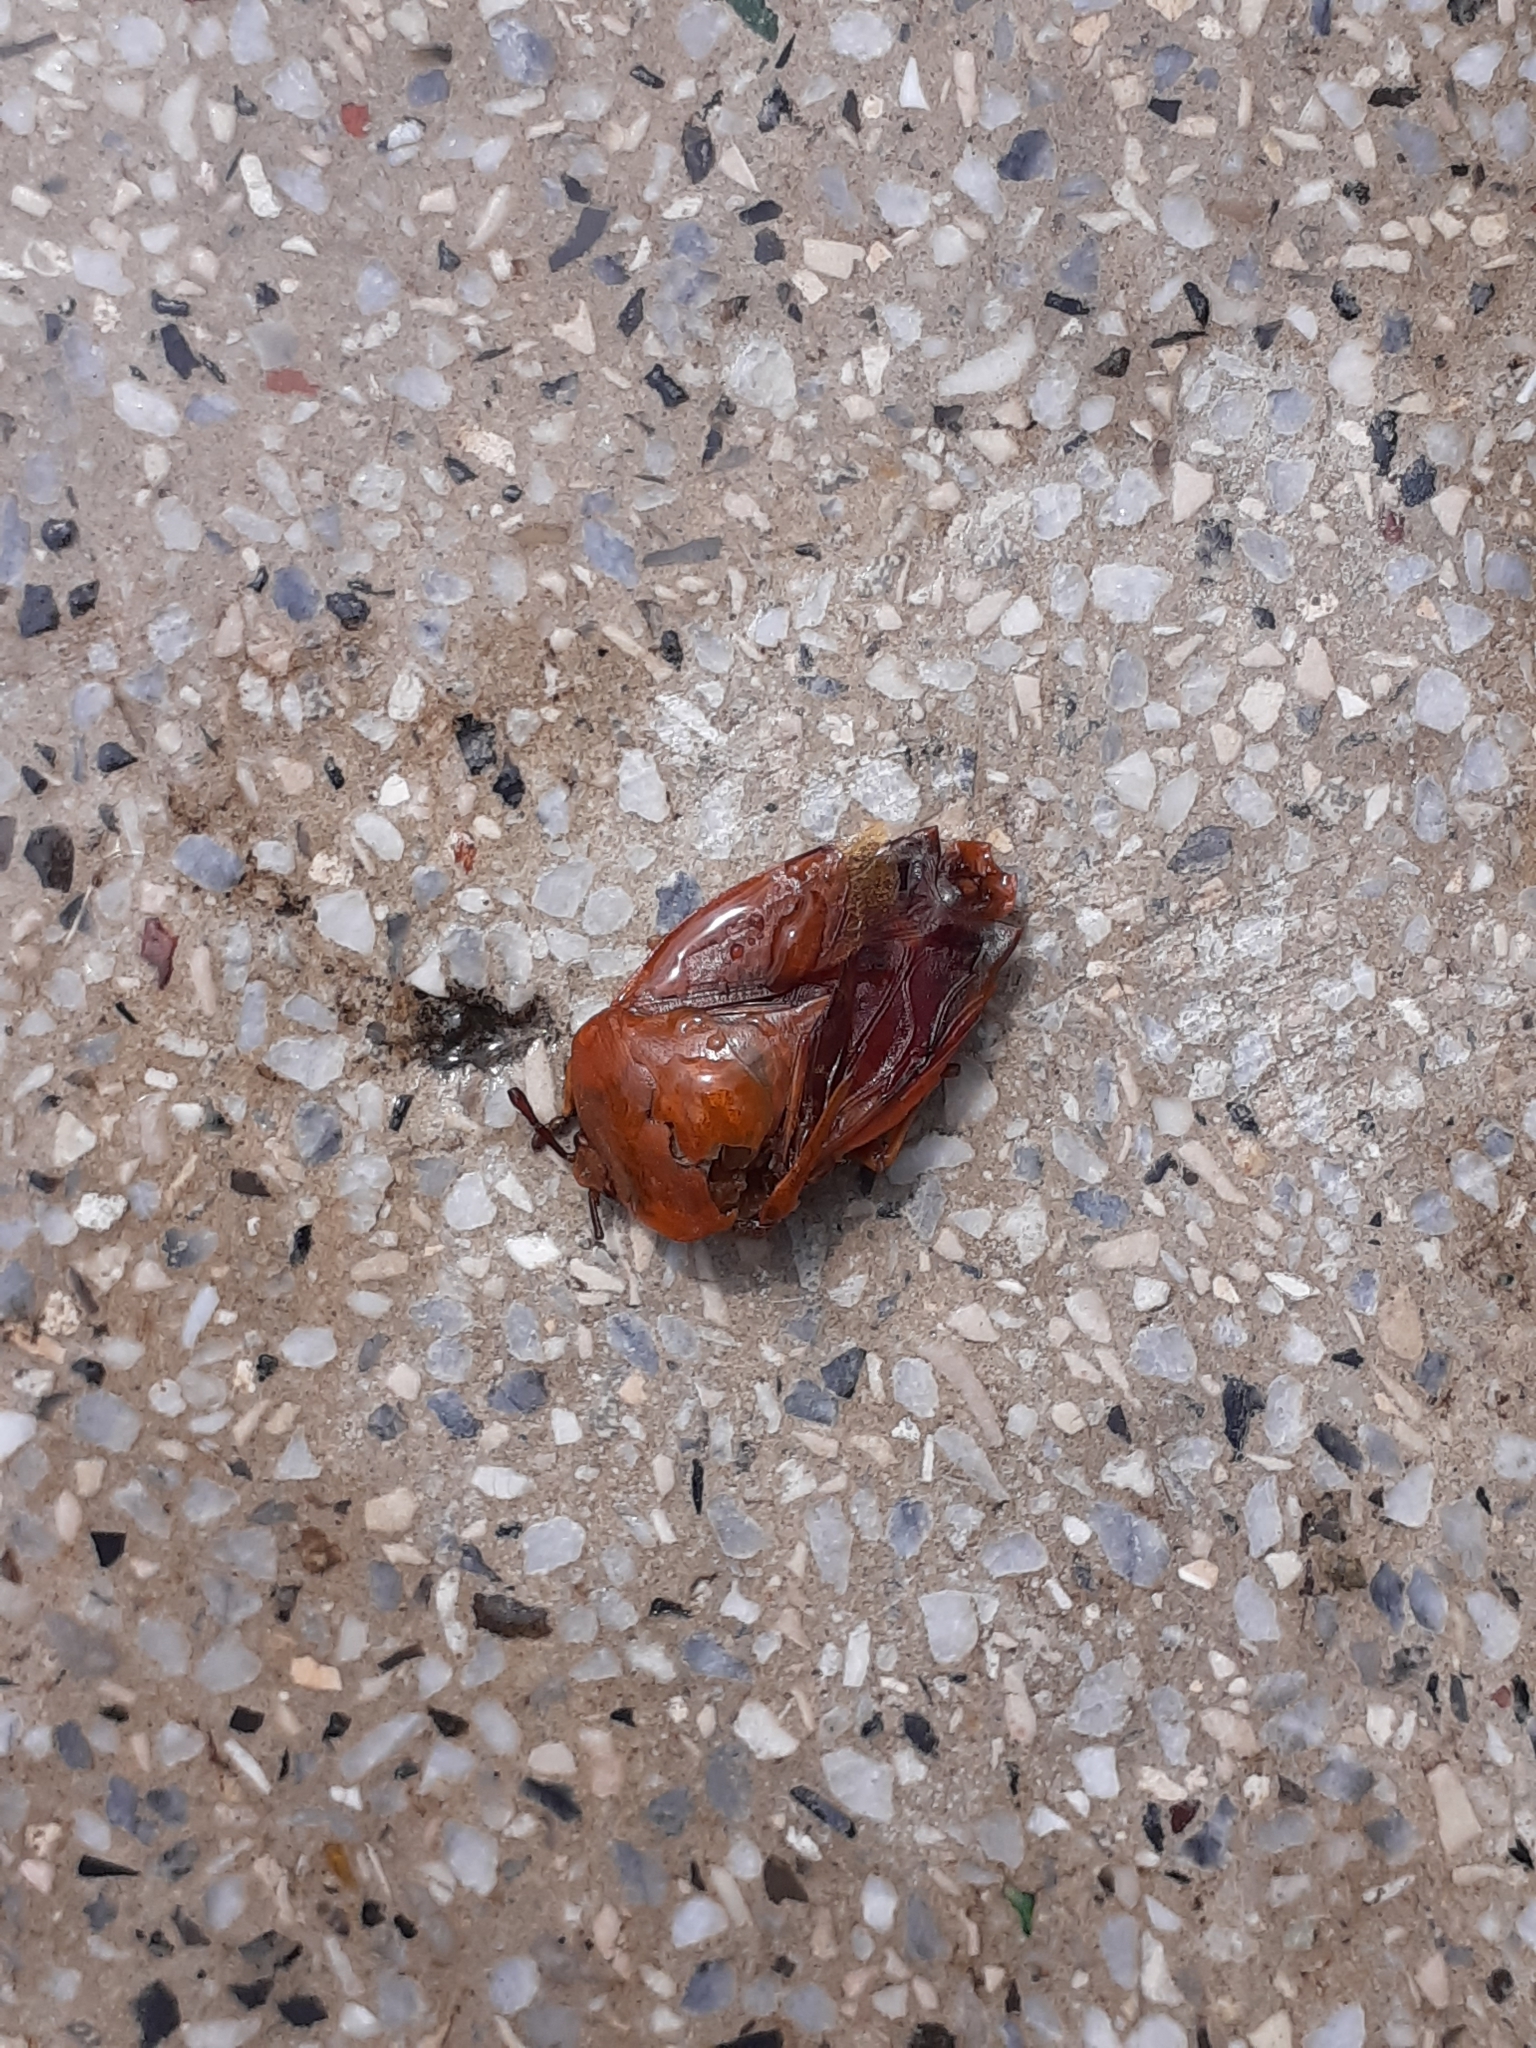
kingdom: Animalia
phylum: Arthropoda
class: Insecta
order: Hemiptera
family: Tessaratomidae
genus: Tessaratoma
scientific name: Tessaratoma papillosa
